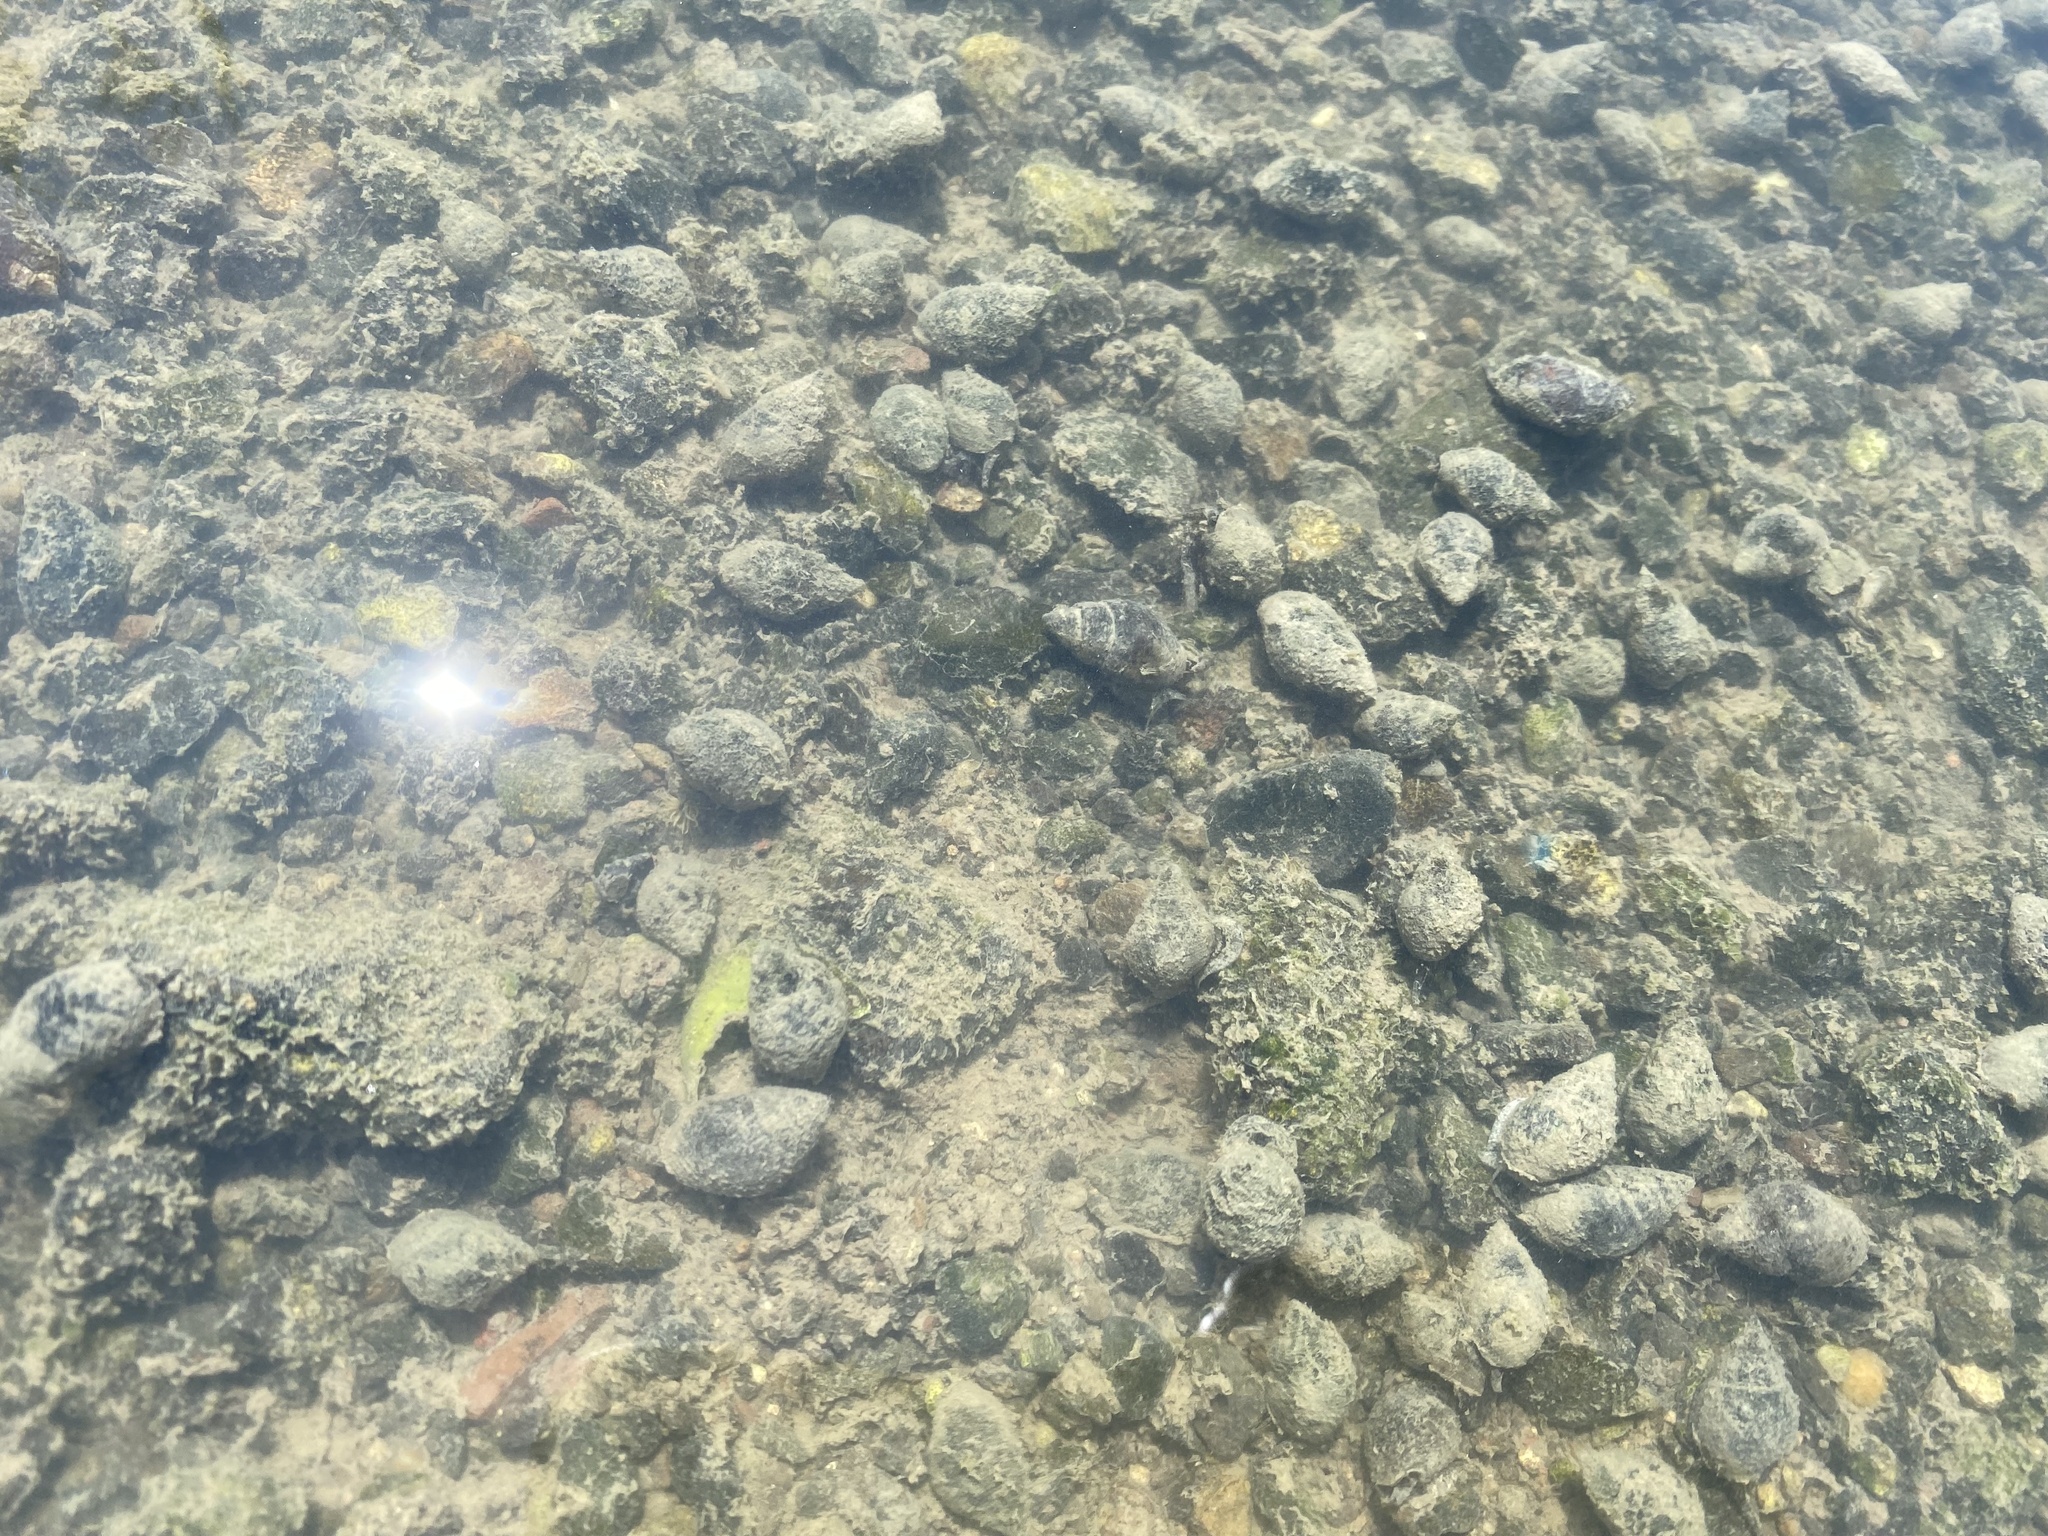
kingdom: Animalia
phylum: Mollusca
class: Gastropoda
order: Neogastropoda
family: Nassariidae
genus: Ilyanassa
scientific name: Ilyanassa obsoleta
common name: Eastern mudsnail
